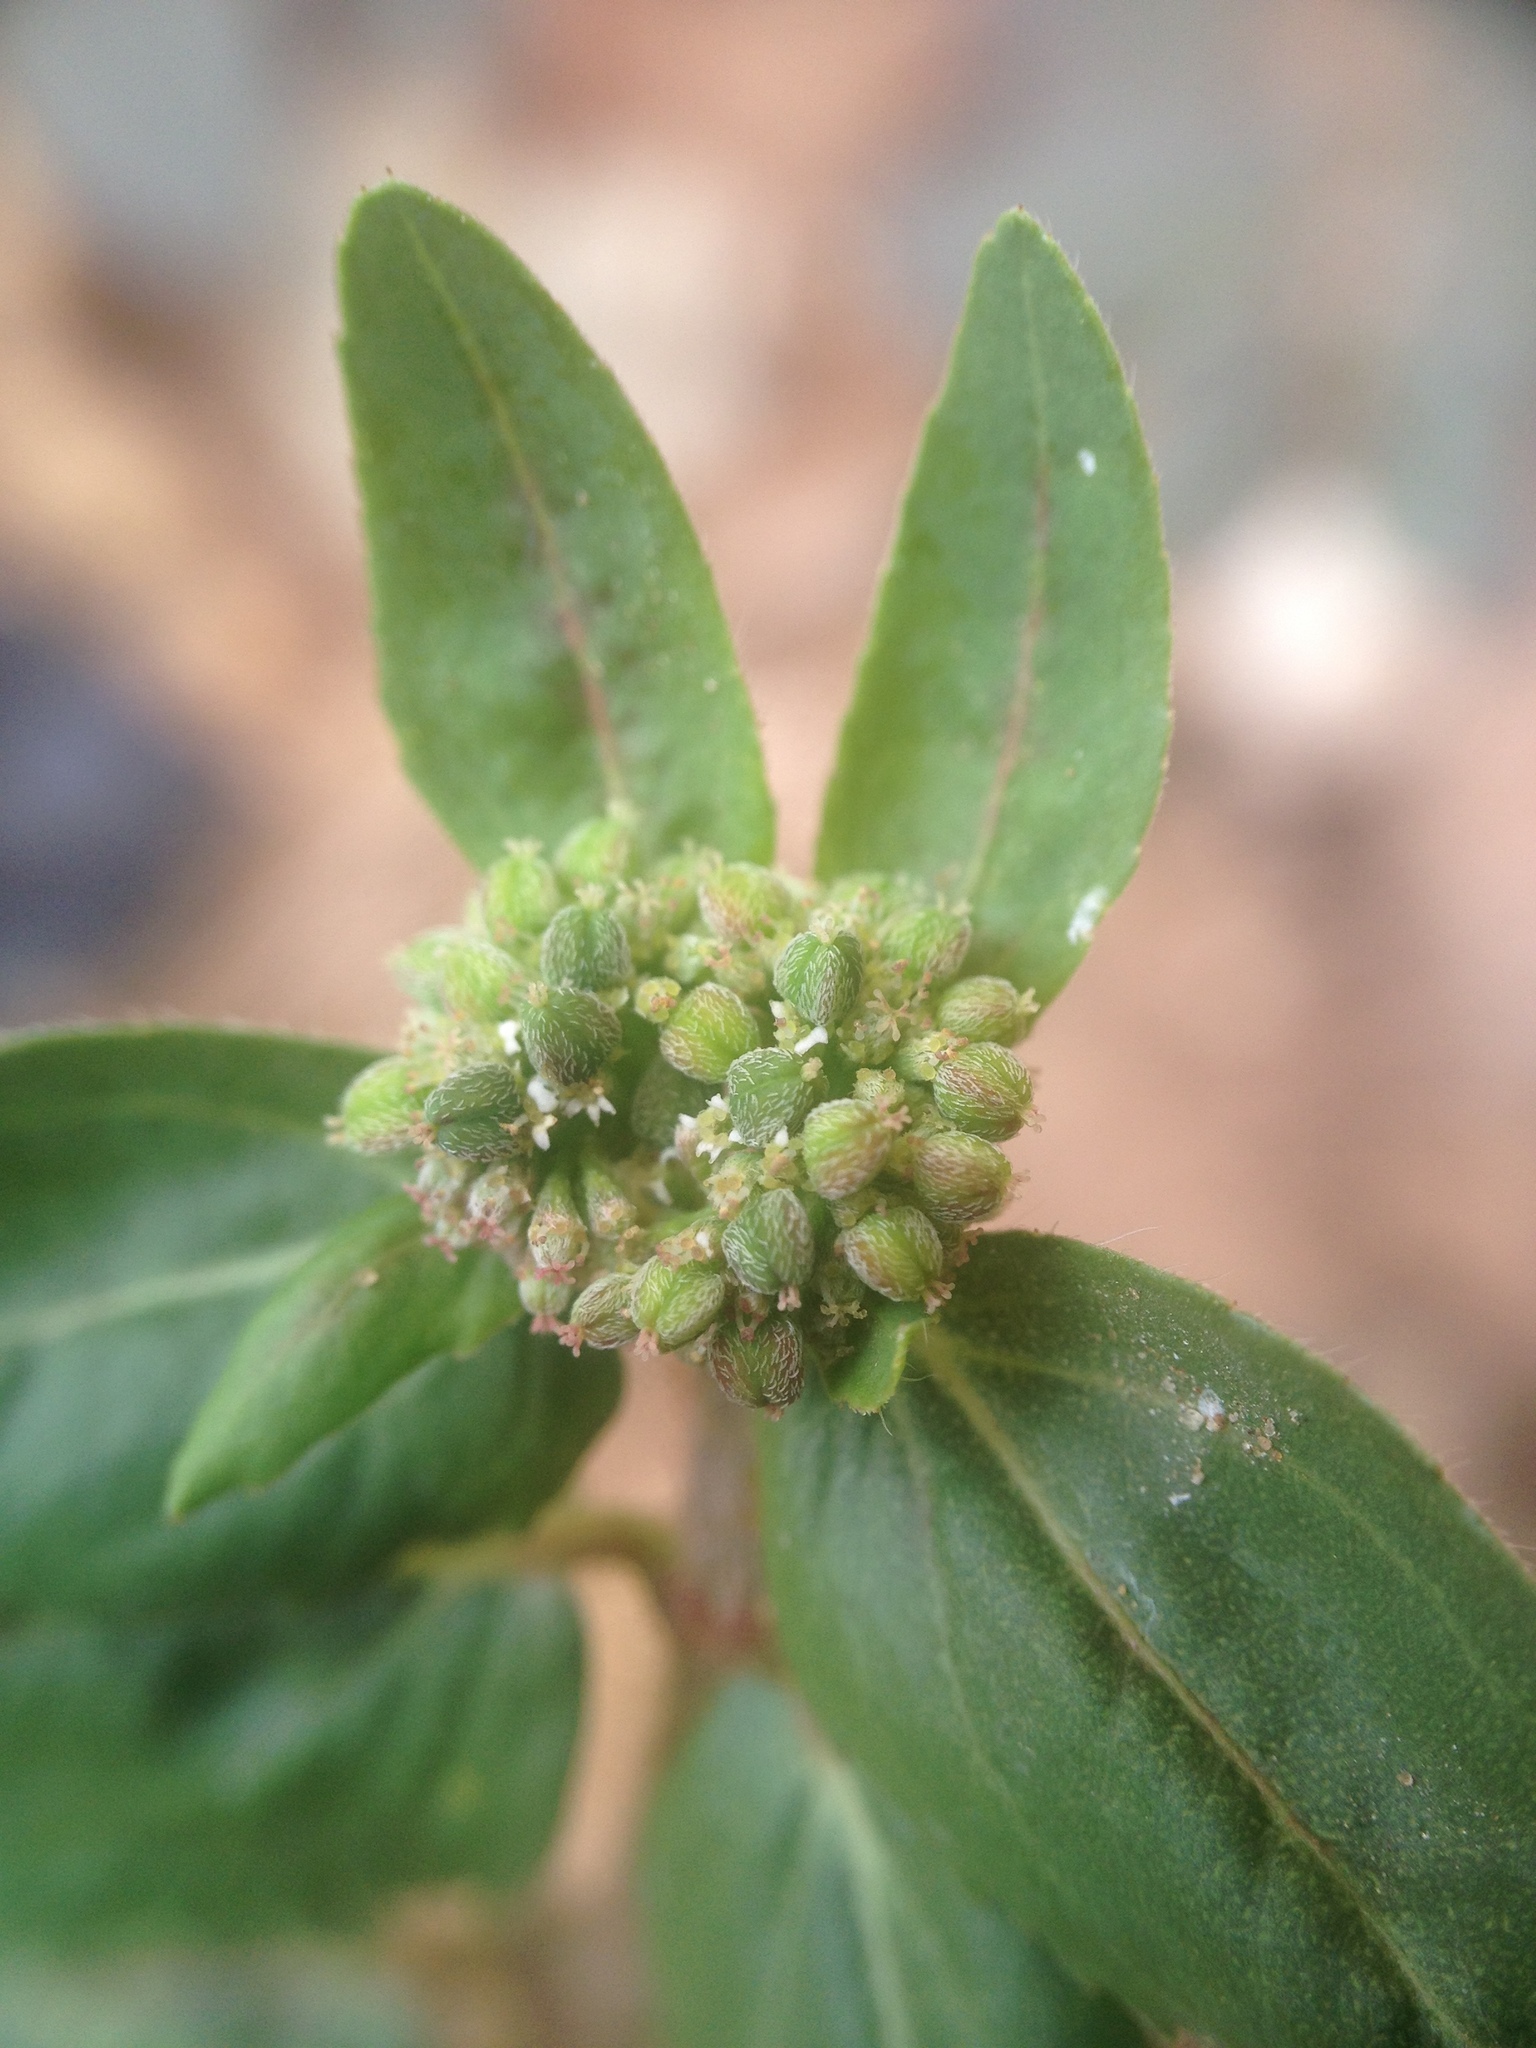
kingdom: Plantae
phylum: Tracheophyta
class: Magnoliopsida
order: Malpighiales
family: Euphorbiaceae
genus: Euphorbia
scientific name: Euphorbia ophthalmica
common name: Florida hammock sandmat
